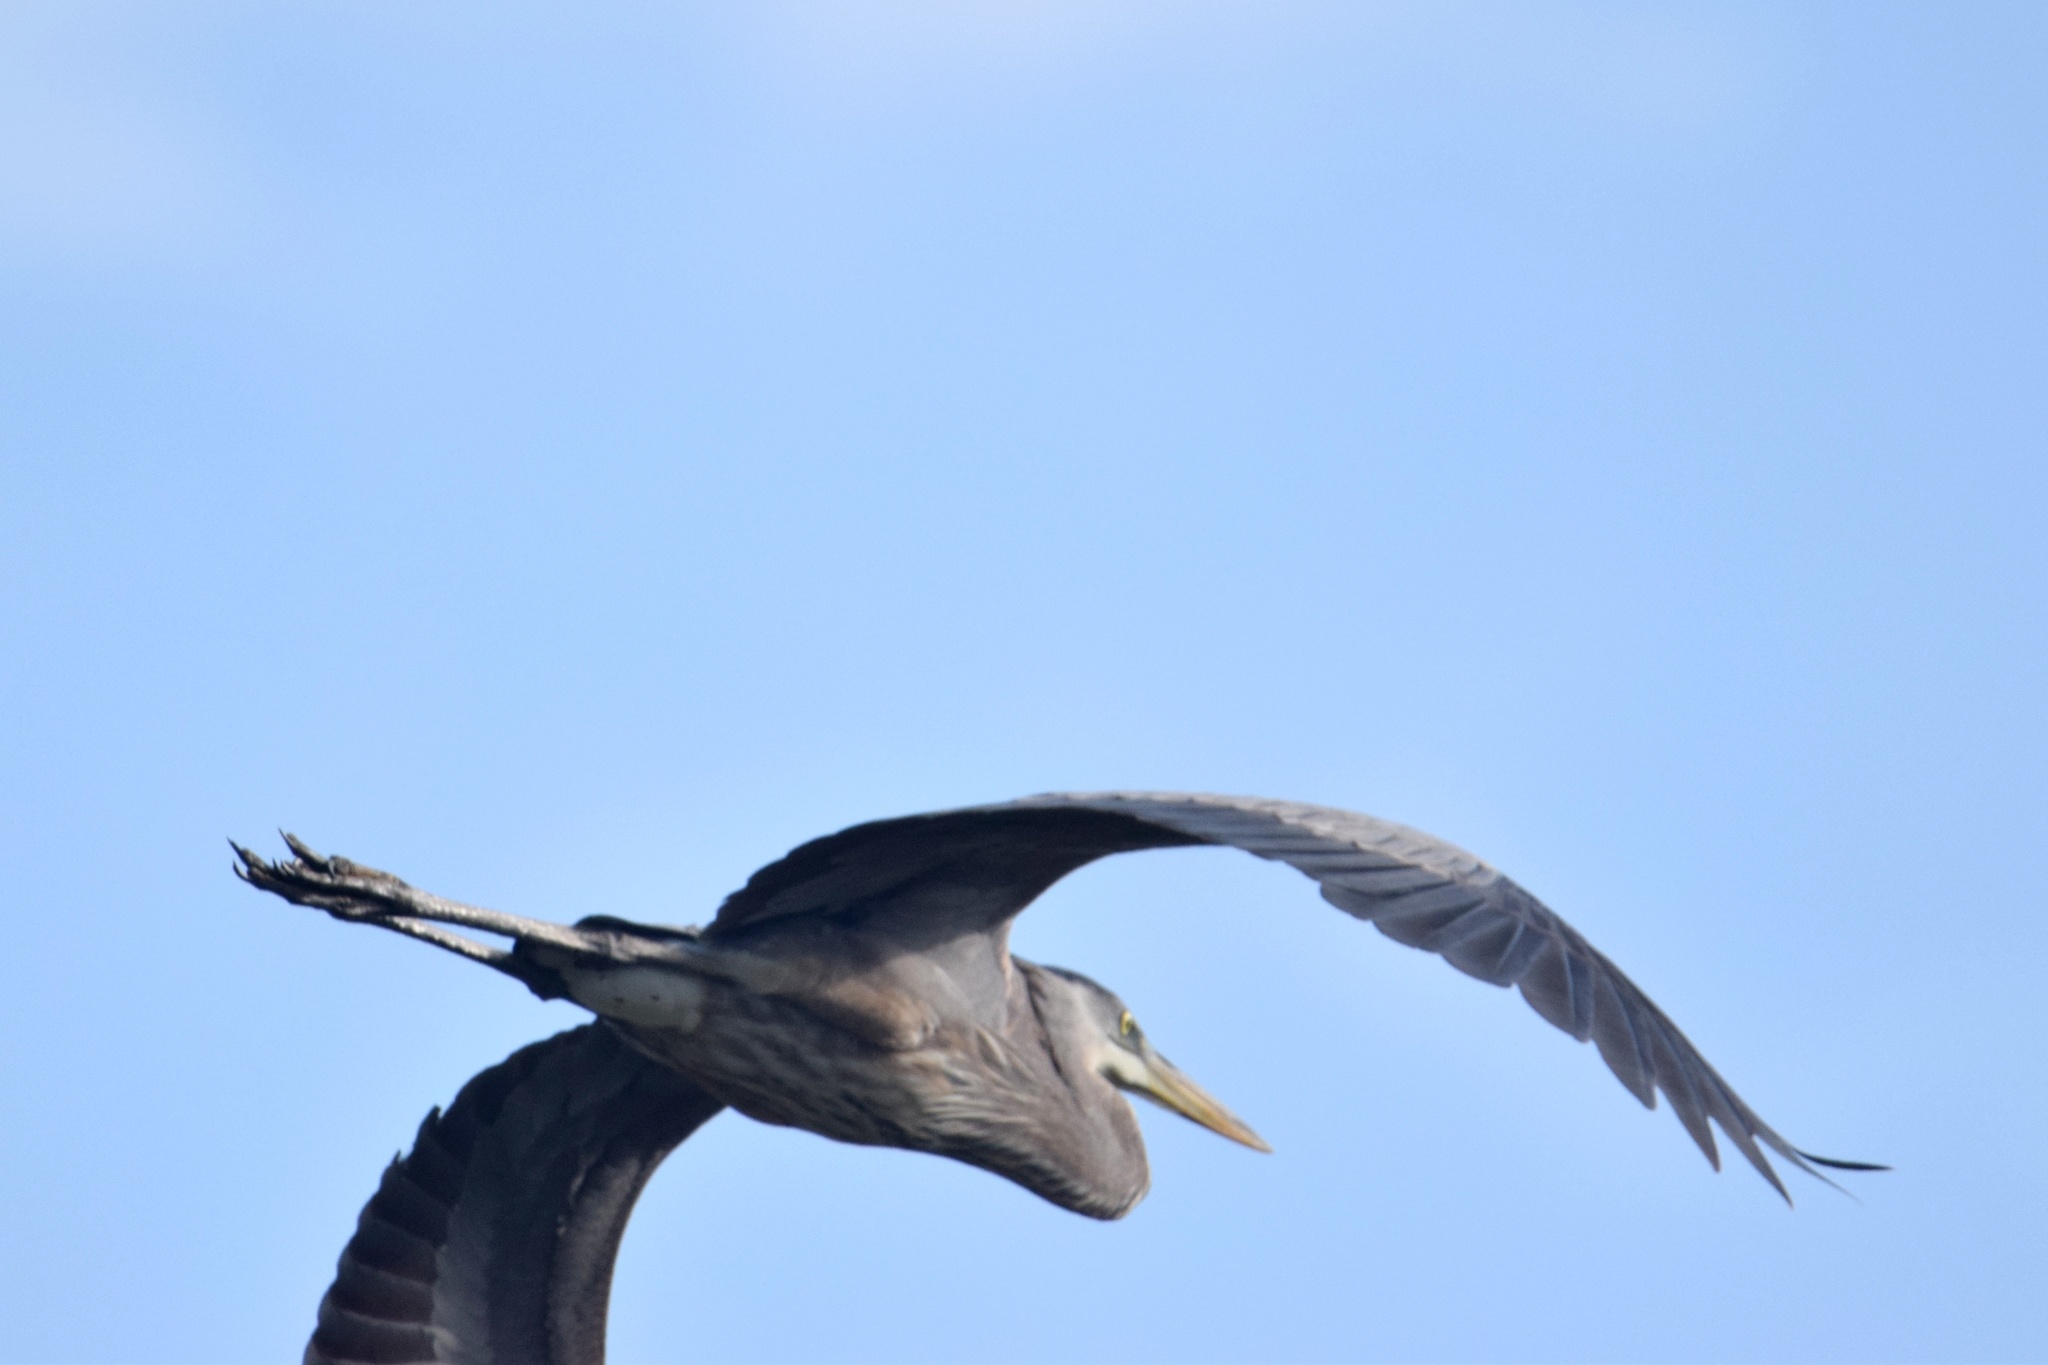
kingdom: Animalia
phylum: Chordata
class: Aves
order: Pelecaniformes
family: Ardeidae
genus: Ardea
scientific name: Ardea herodias
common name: Great blue heron
